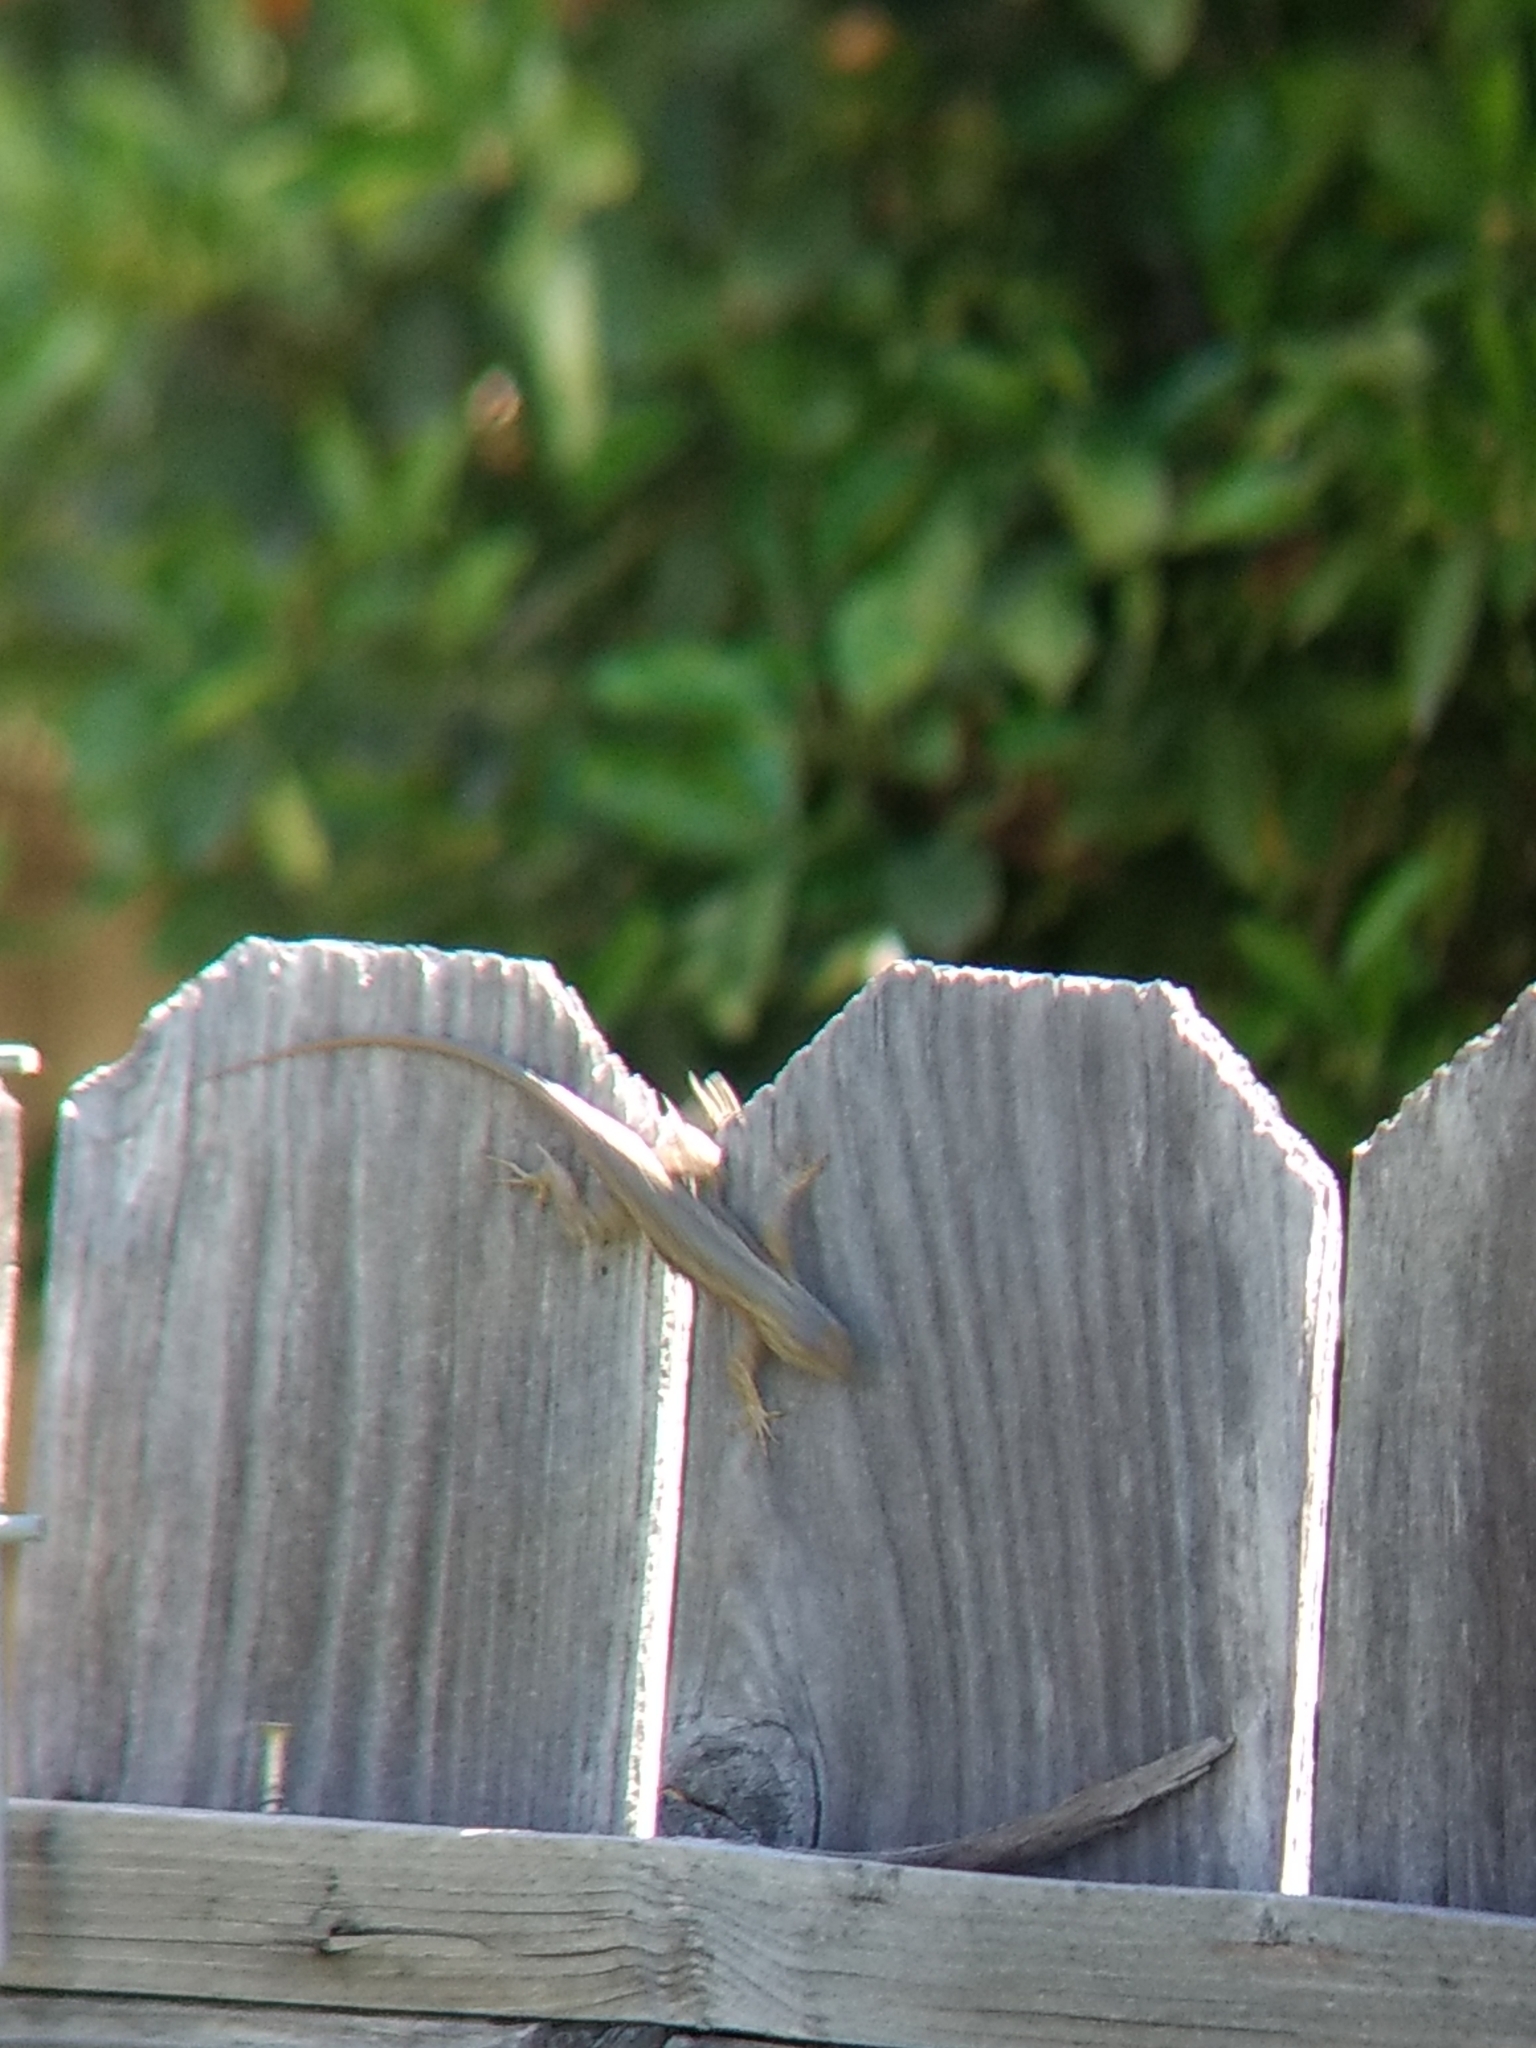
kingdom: Animalia
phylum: Chordata
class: Squamata
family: Phrynosomatidae
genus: Sceloporus
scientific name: Sceloporus occidentalis
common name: Western fence lizard
